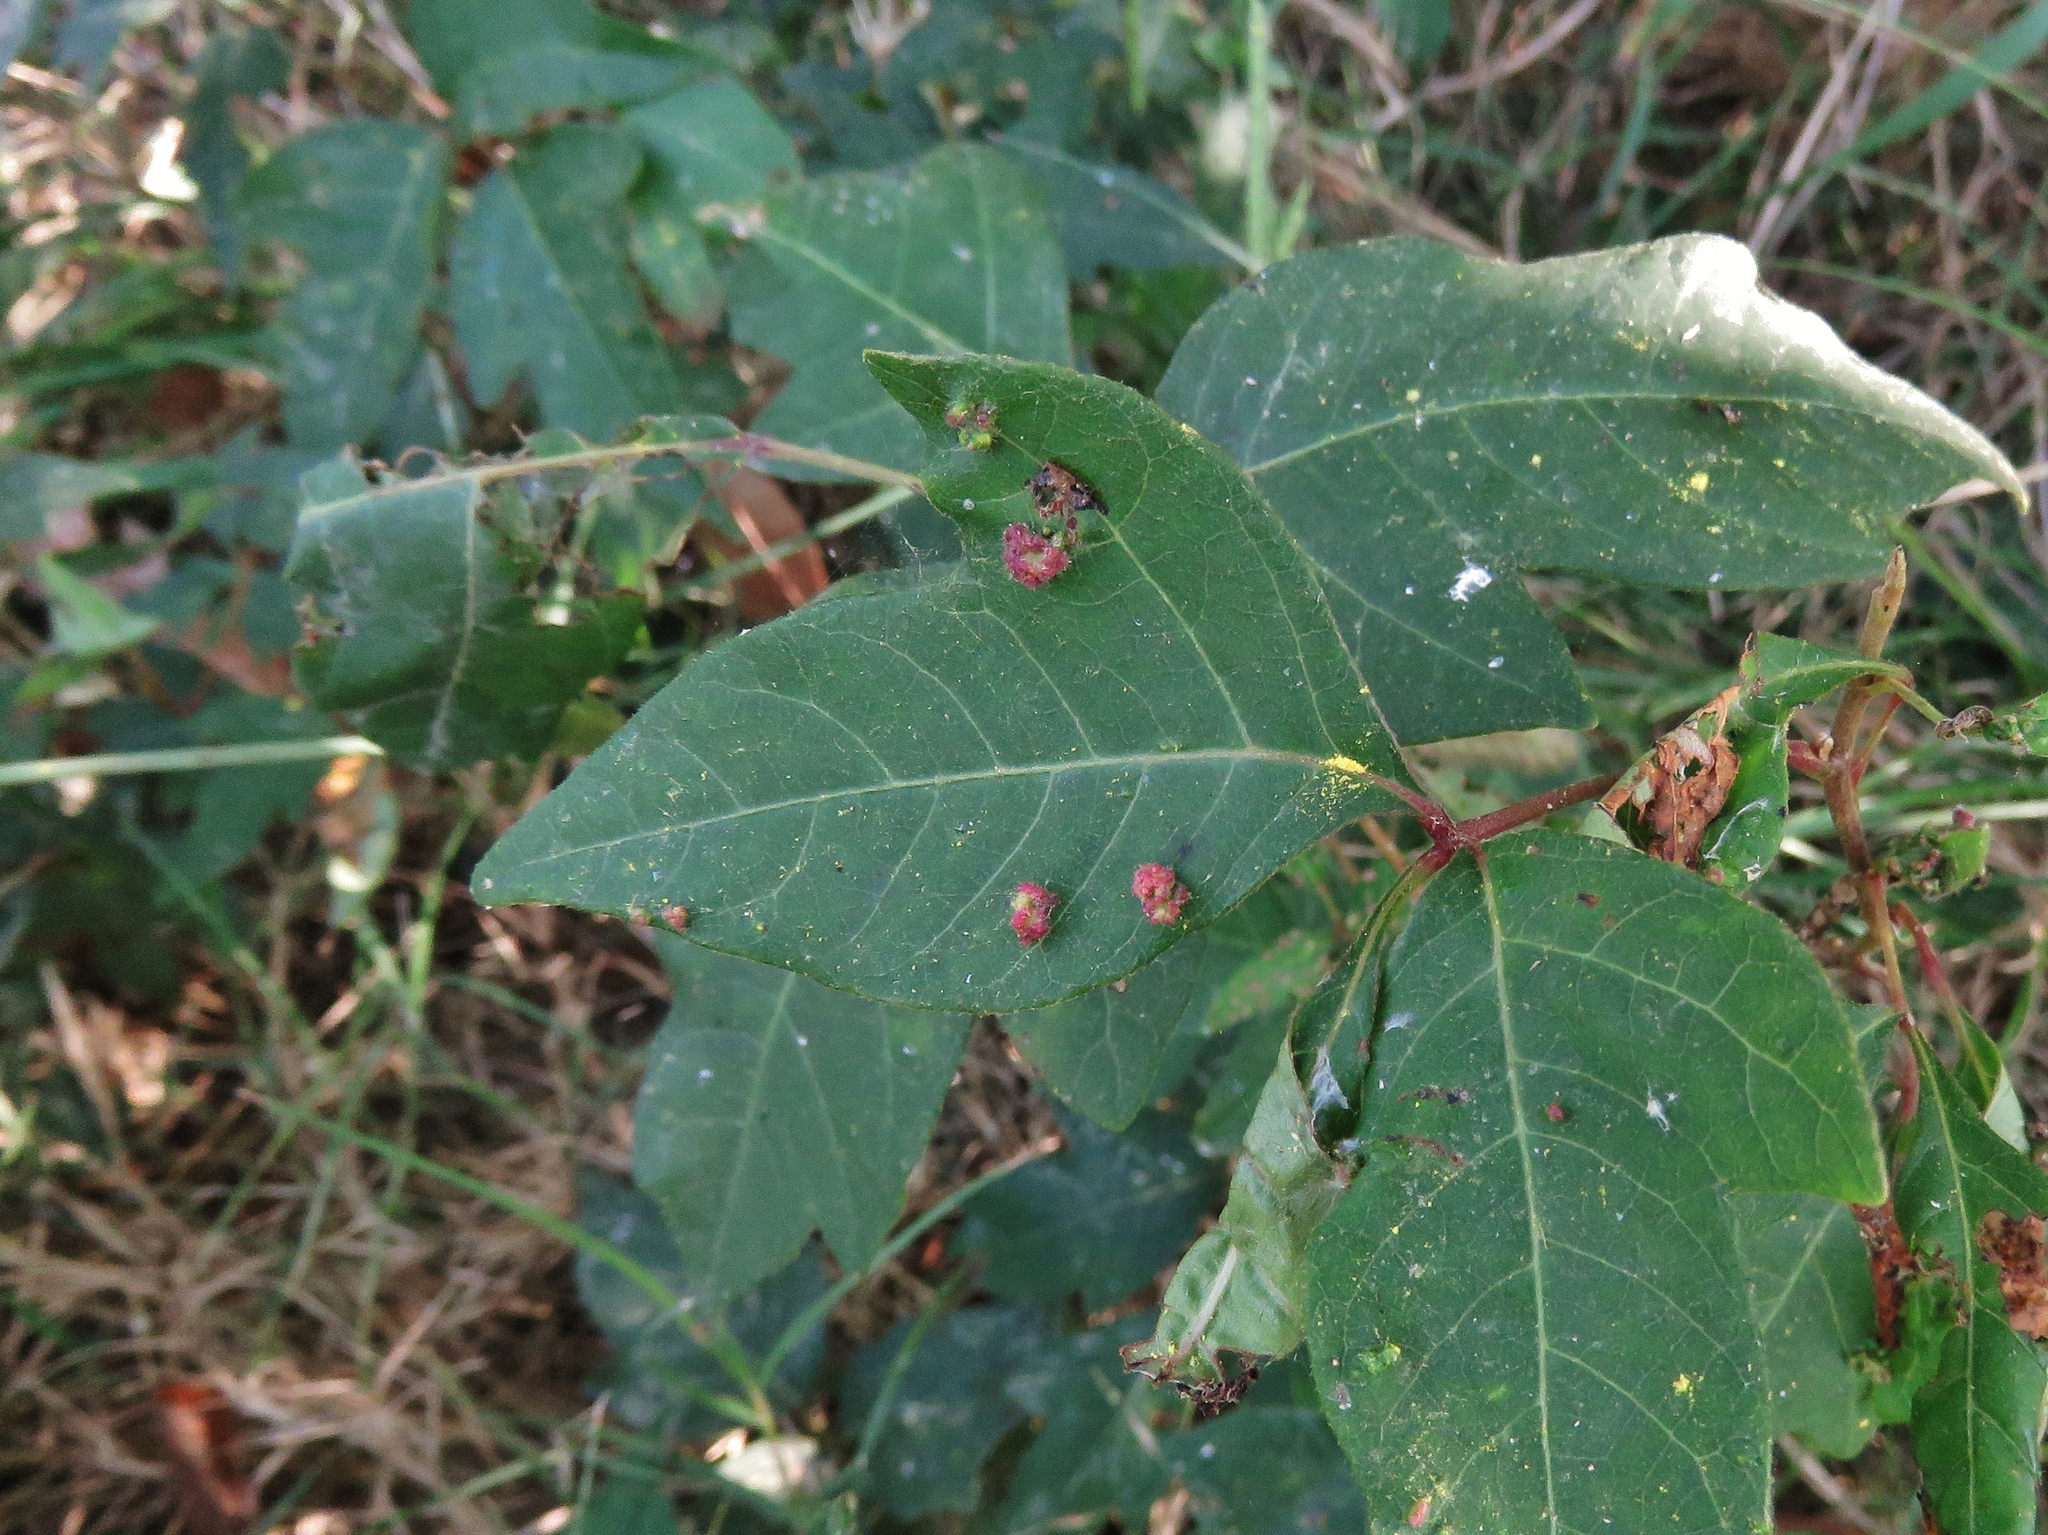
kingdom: Animalia
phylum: Arthropoda
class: Arachnida
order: Trombidiformes
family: Eriophyidae
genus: Aculops
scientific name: Aculops
